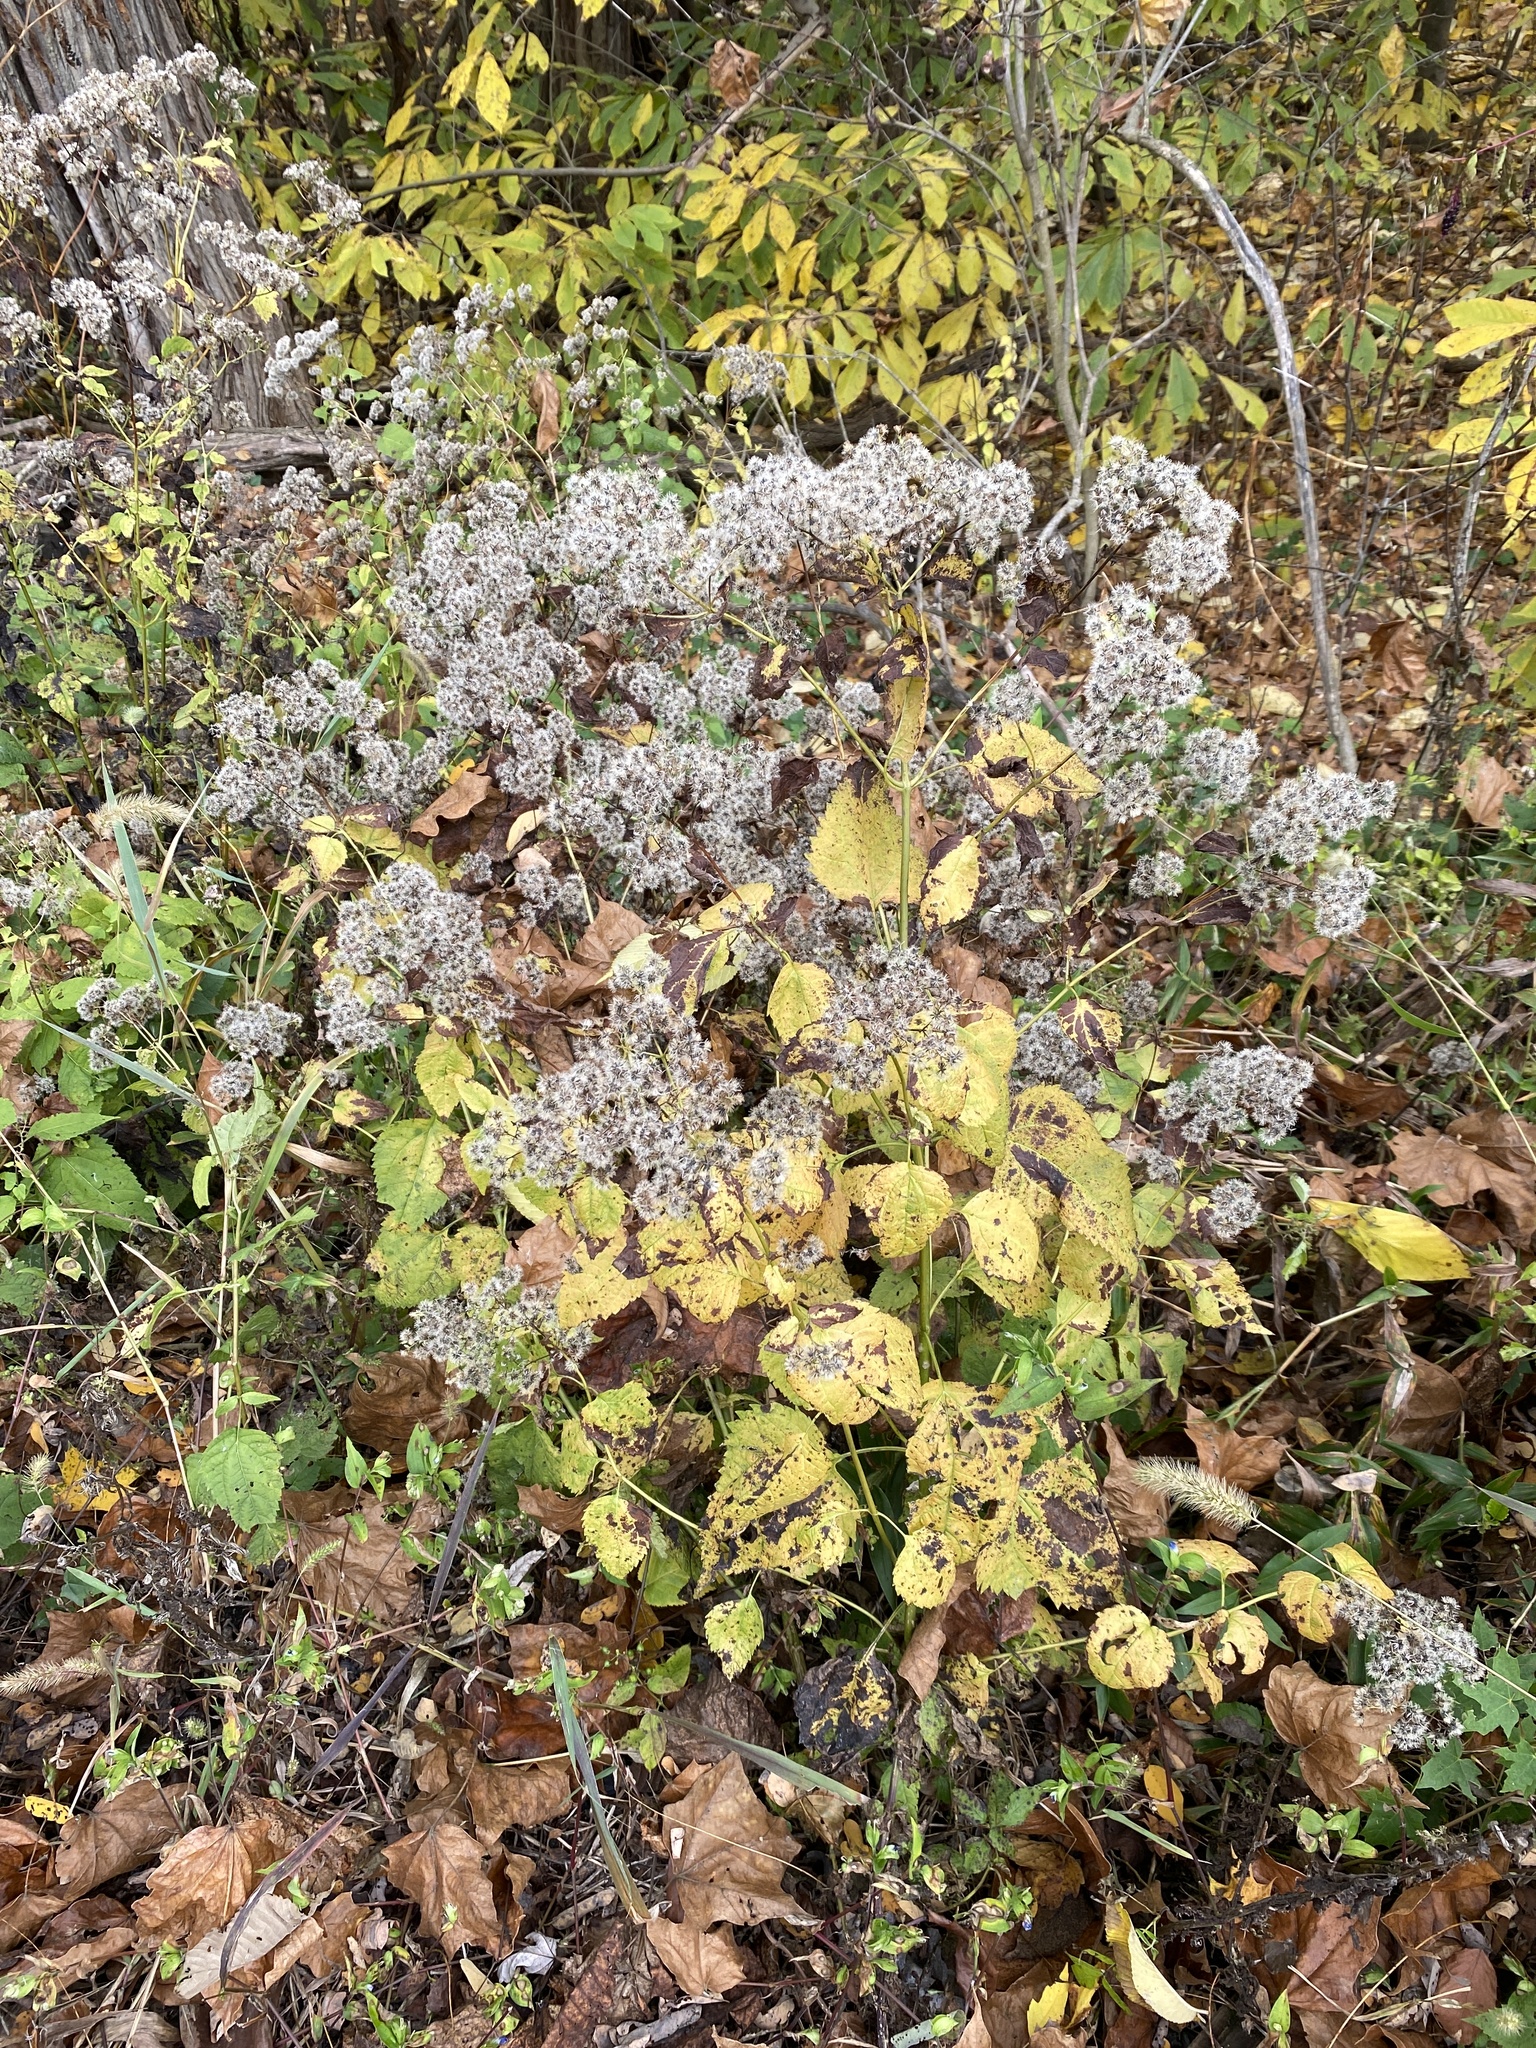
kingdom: Plantae
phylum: Tracheophyta
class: Magnoliopsida
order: Asterales
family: Asteraceae
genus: Ageratina
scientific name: Ageratina altissima
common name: White snakeroot
